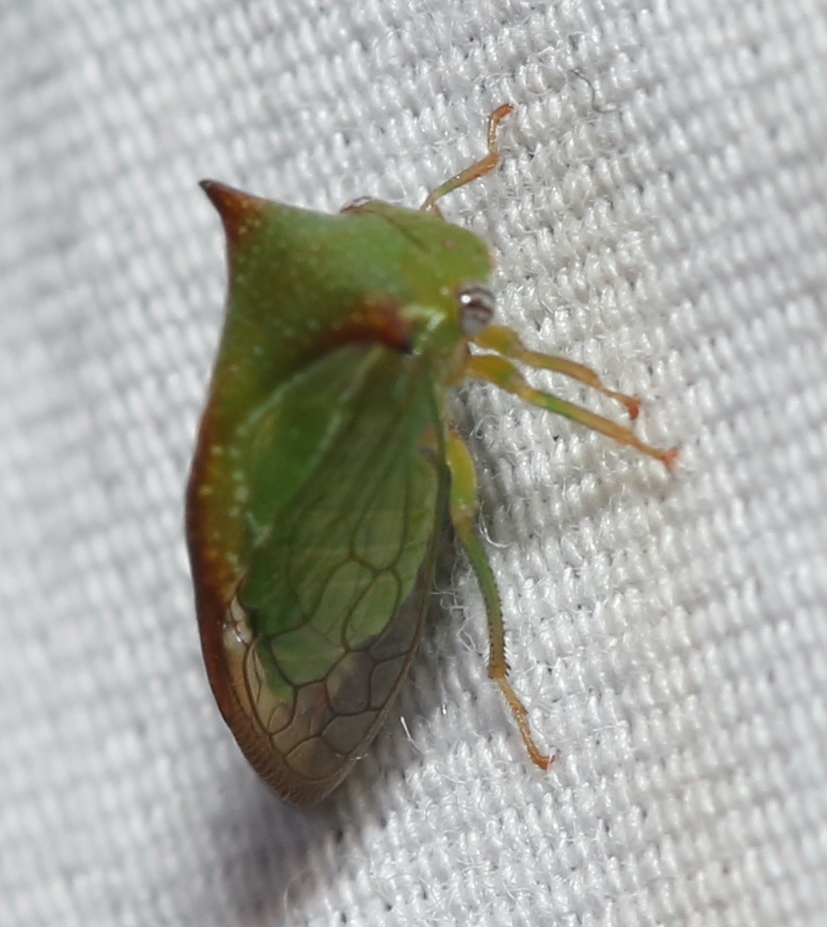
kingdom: Animalia
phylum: Arthropoda
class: Insecta
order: Hemiptera
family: Membracidae
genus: Stictolobus
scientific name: Stictolobus borealis
